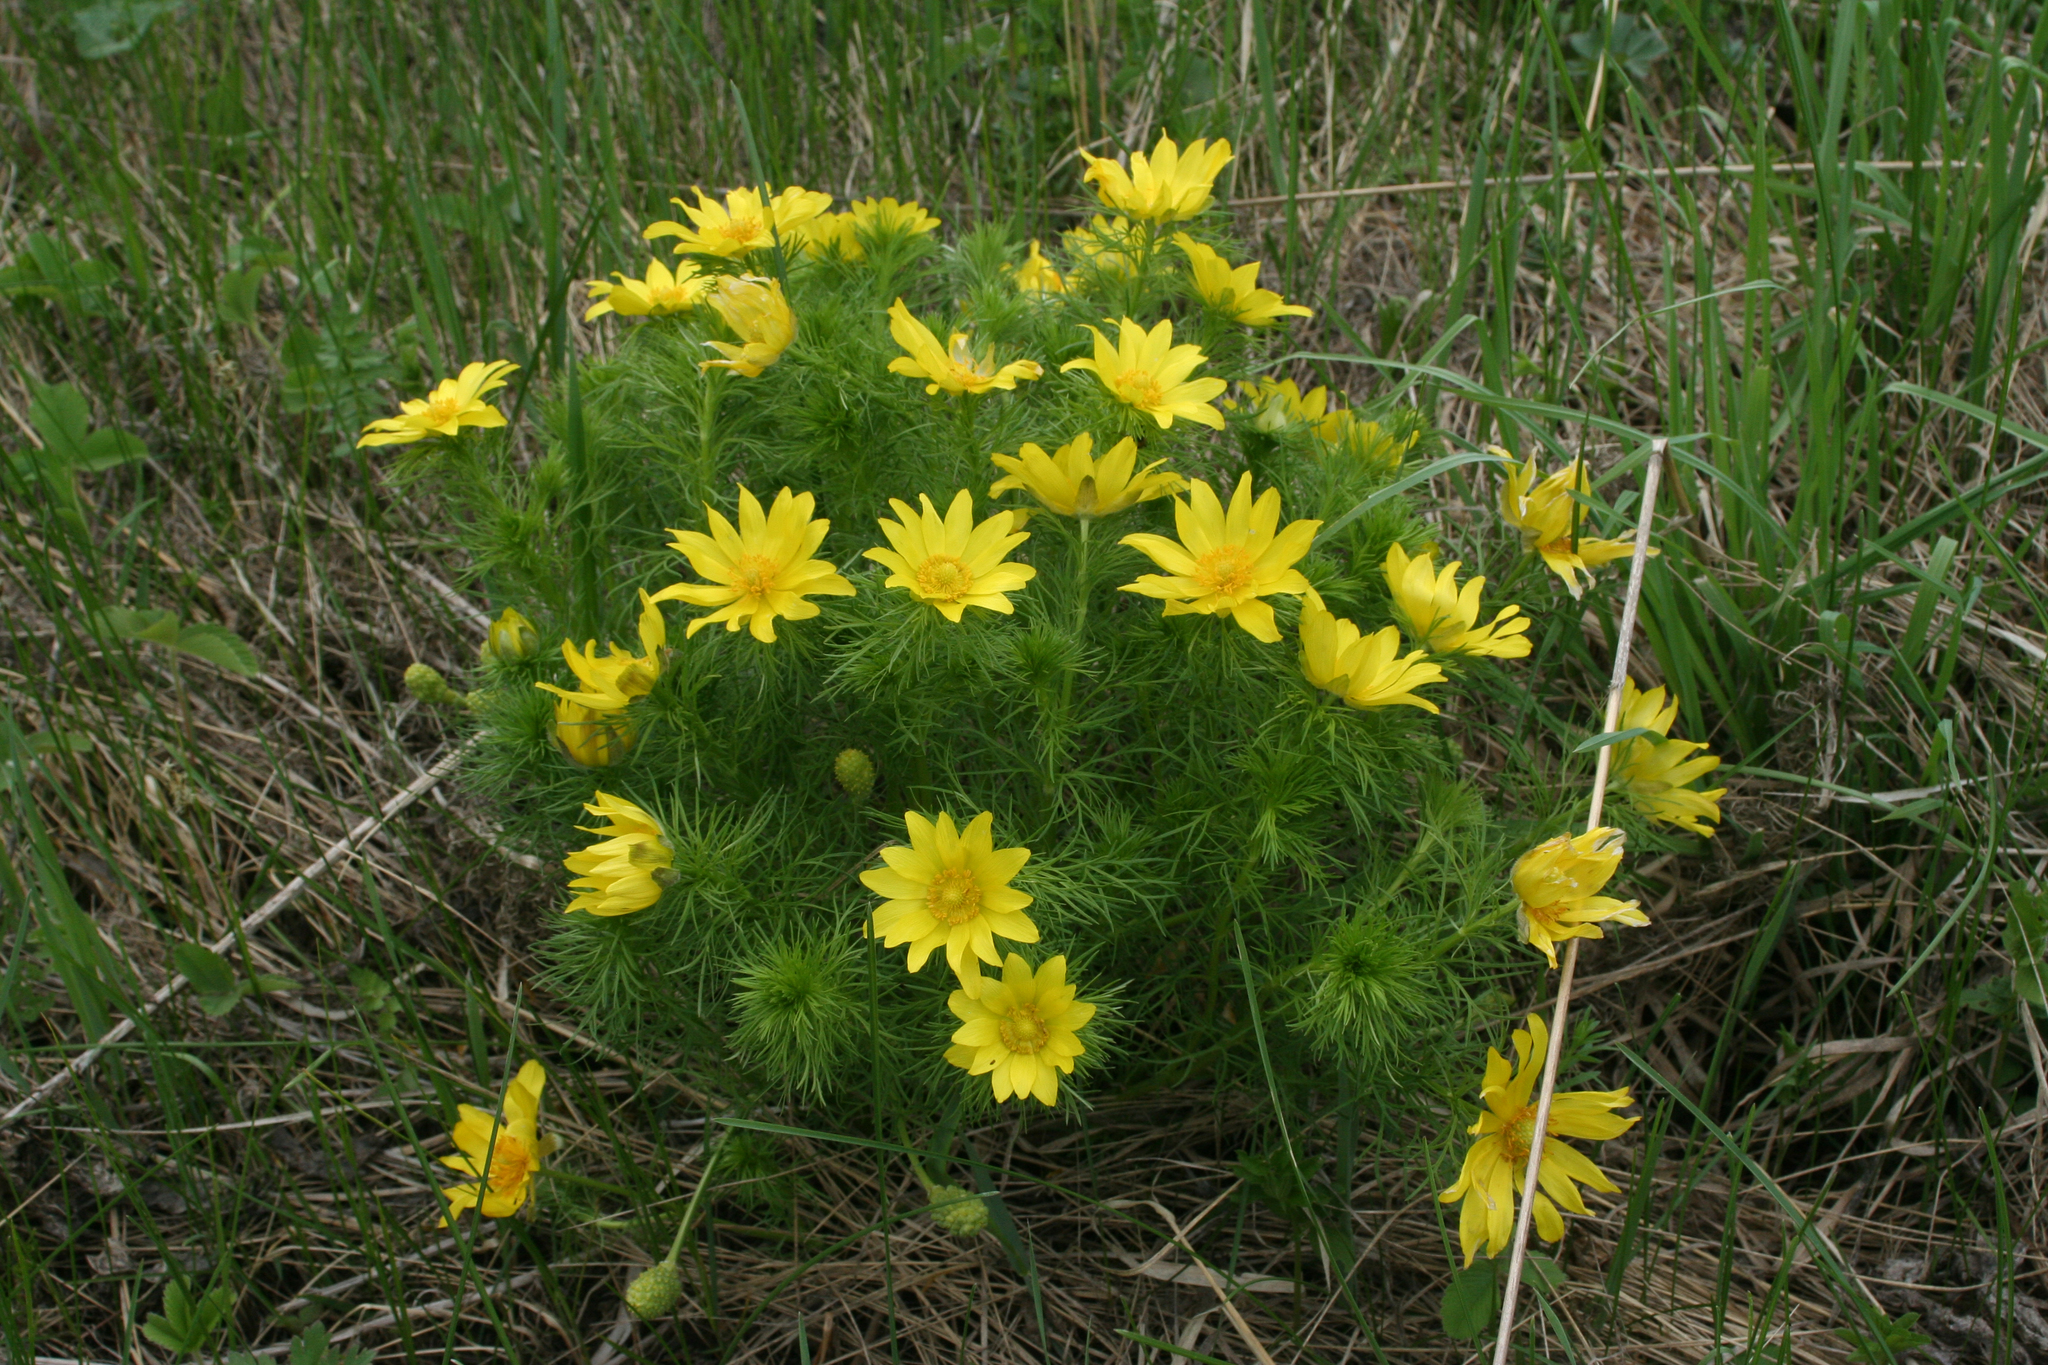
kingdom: Plantae
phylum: Tracheophyta
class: Magnoliopsida
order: Ranunculales
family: Ranunculaceae
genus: Adonis
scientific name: Adonis vernalis
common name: Yellow pheasants-eye
